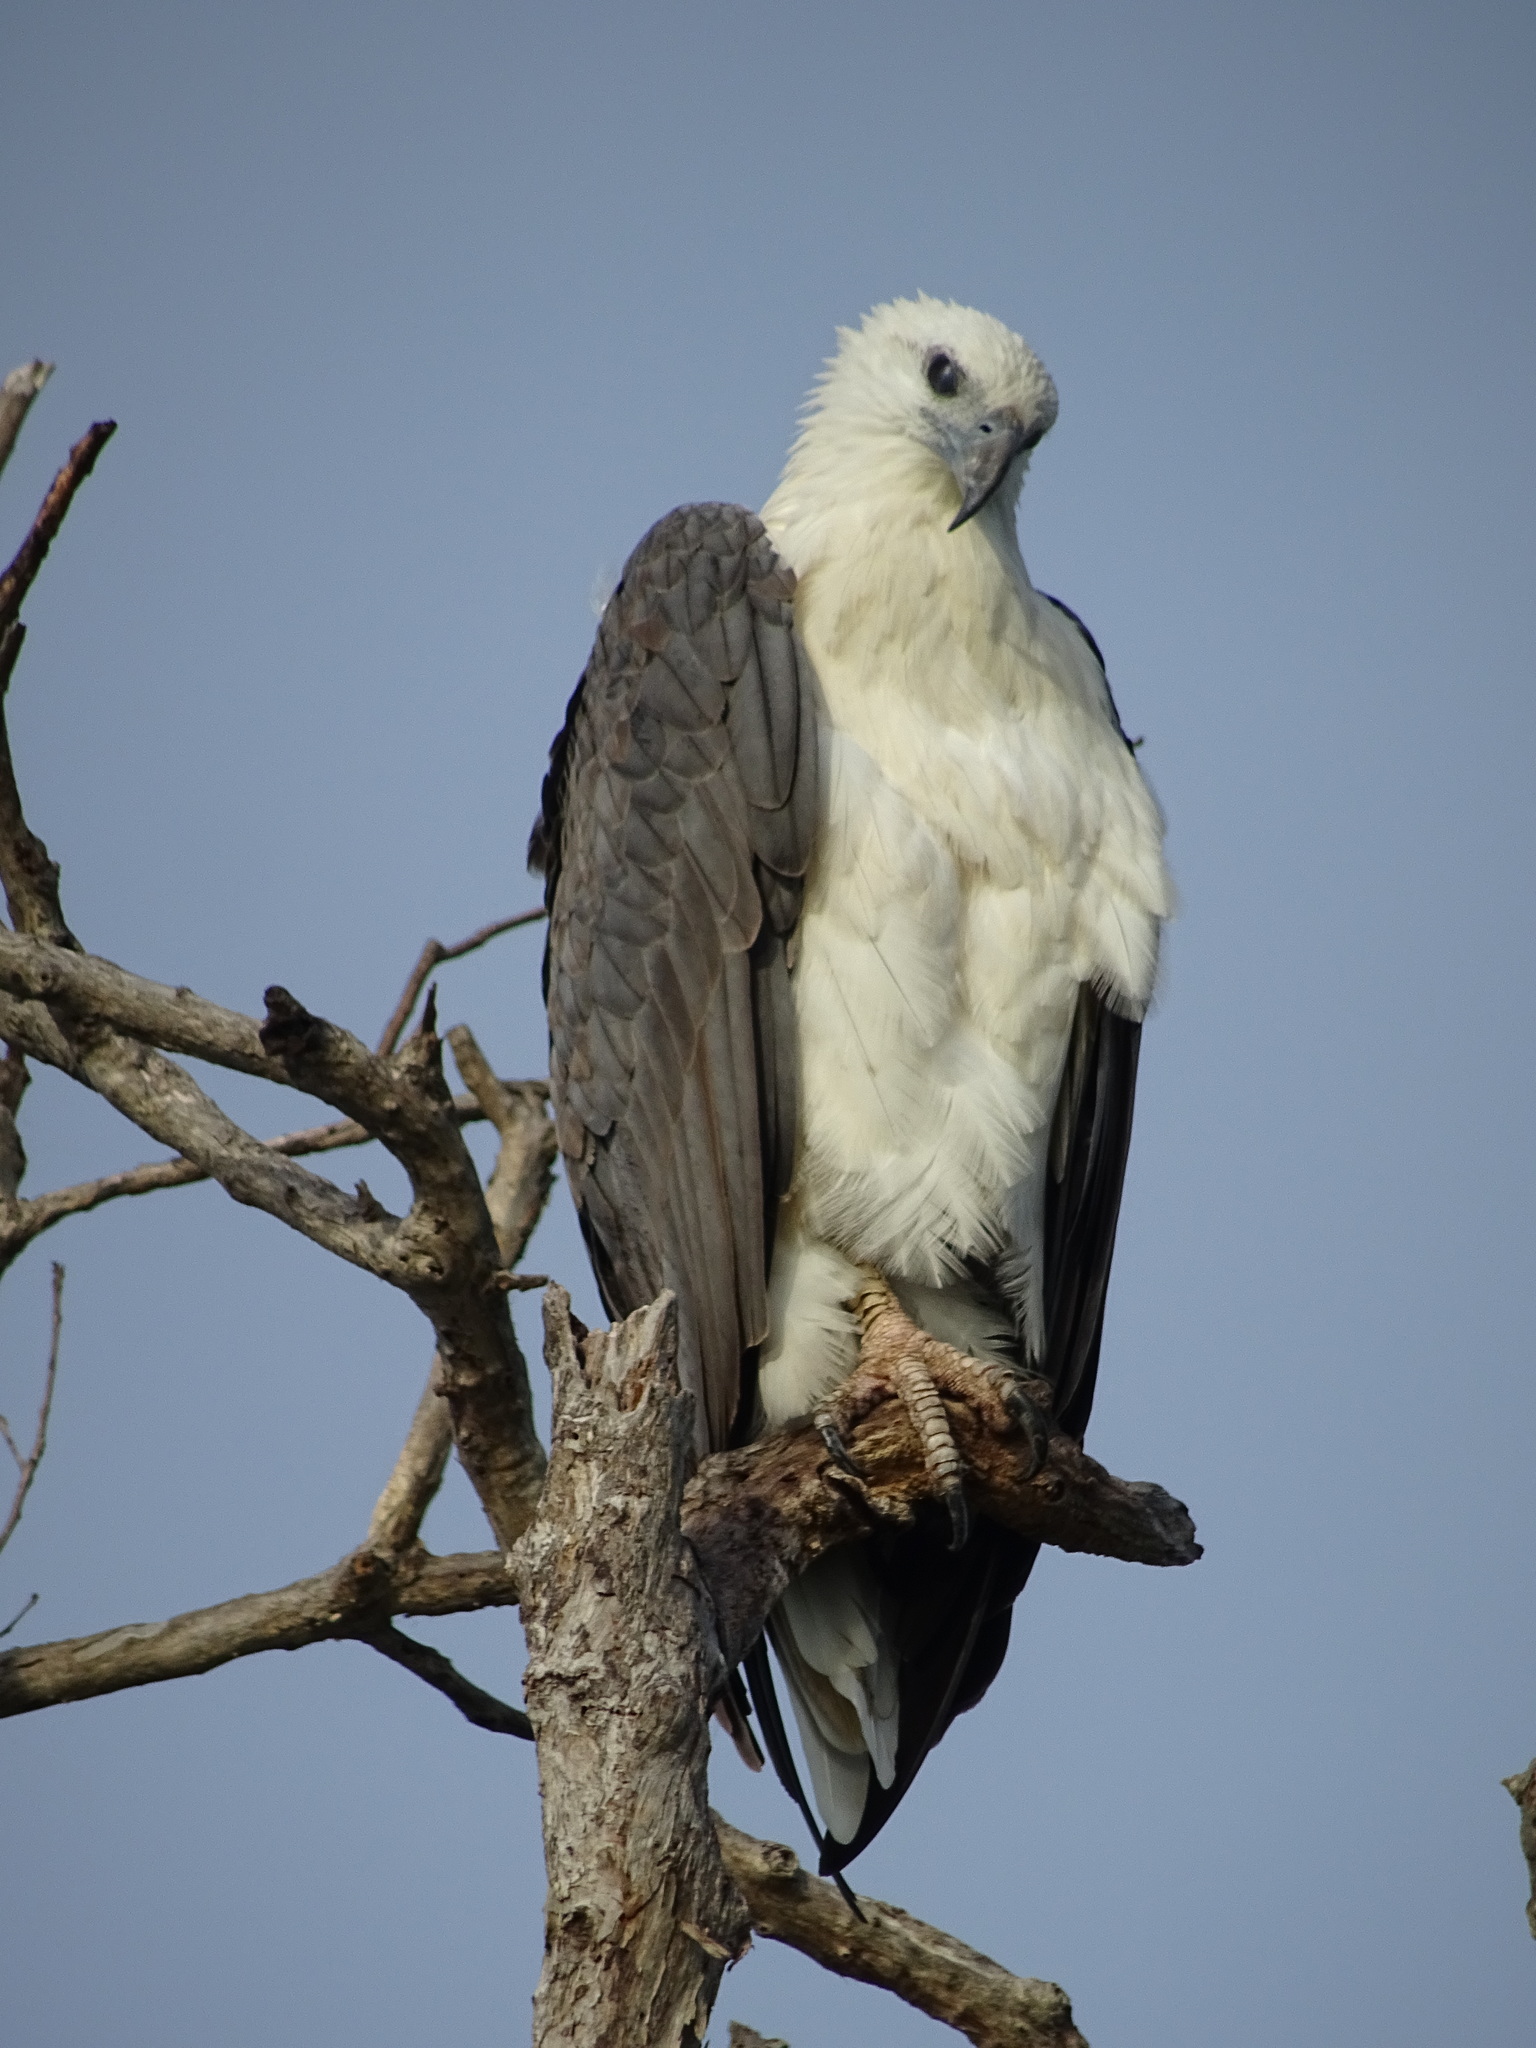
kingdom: Animalia
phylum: Chordata
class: Aves
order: Accipitriformes
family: Accipitridae
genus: Haliaeetus
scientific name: Haliaeetus leucogaster
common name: White-bellied sea eagle
